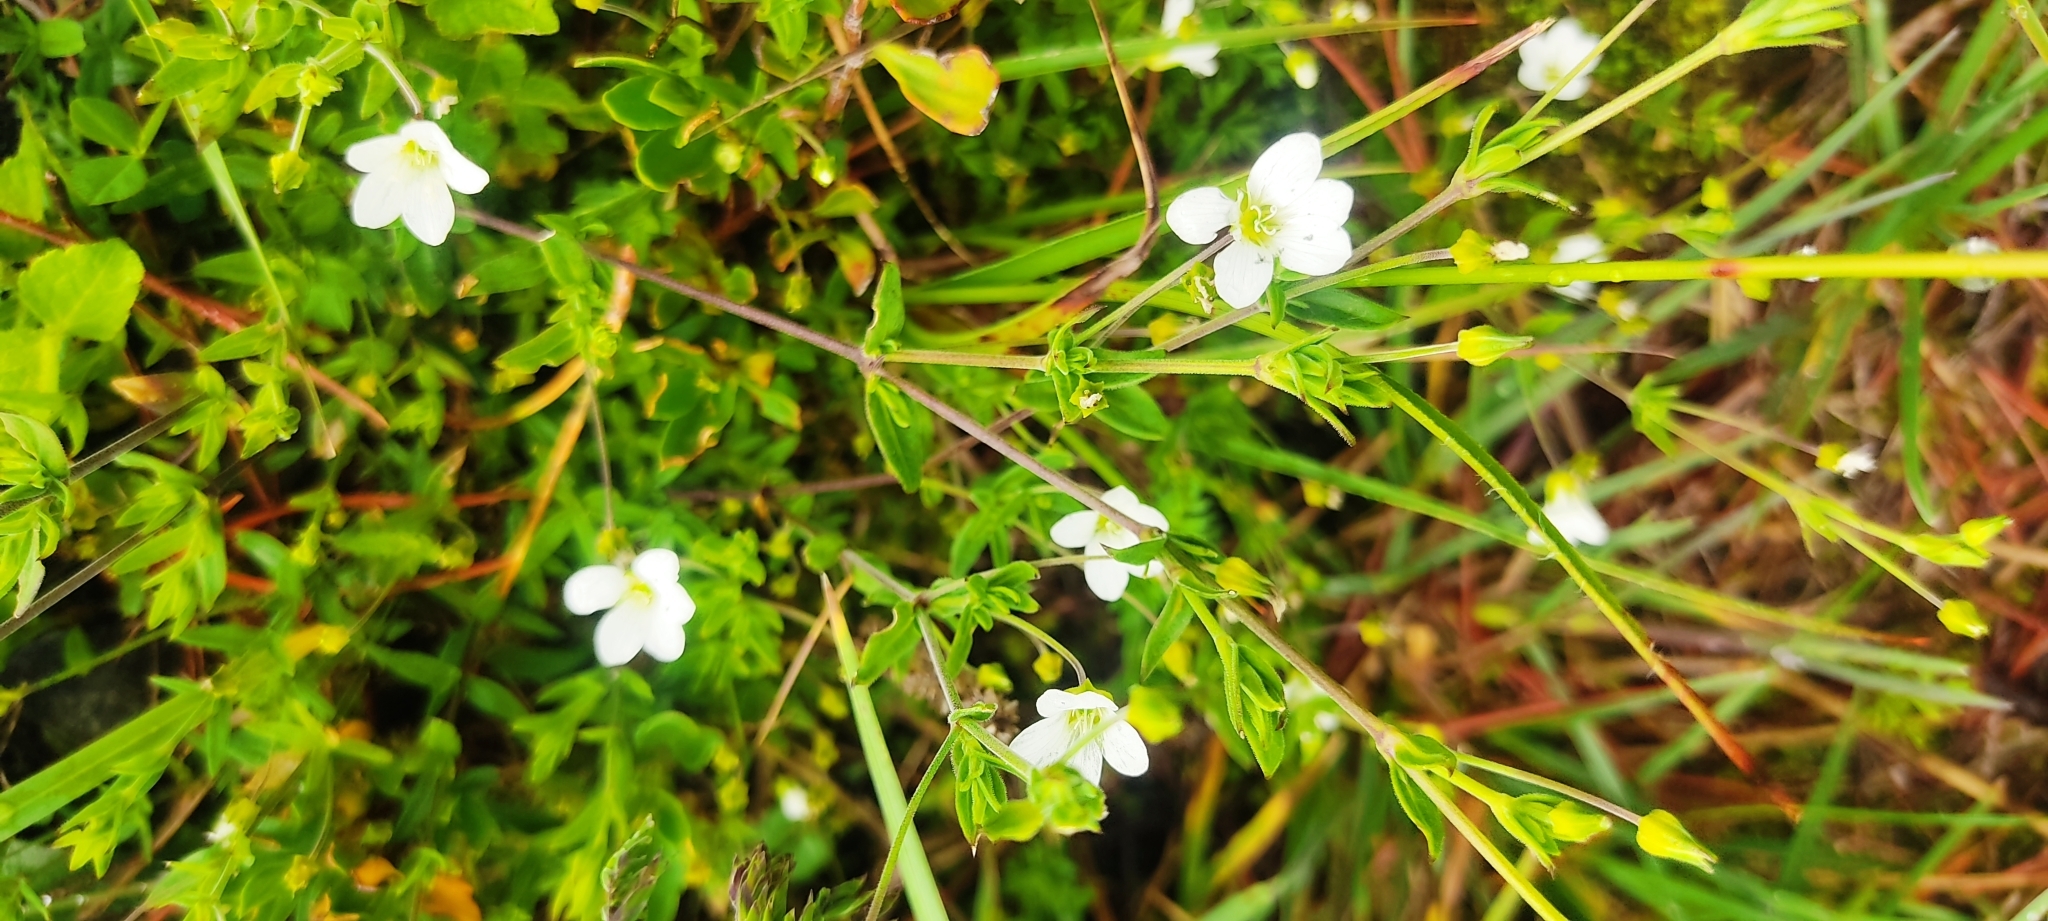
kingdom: Plantae
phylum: Tracheophyta
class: Magnoliopsida
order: Caryophyllales
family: Caryophyllaceae
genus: Arenaria
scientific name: Arenaria soratensis
